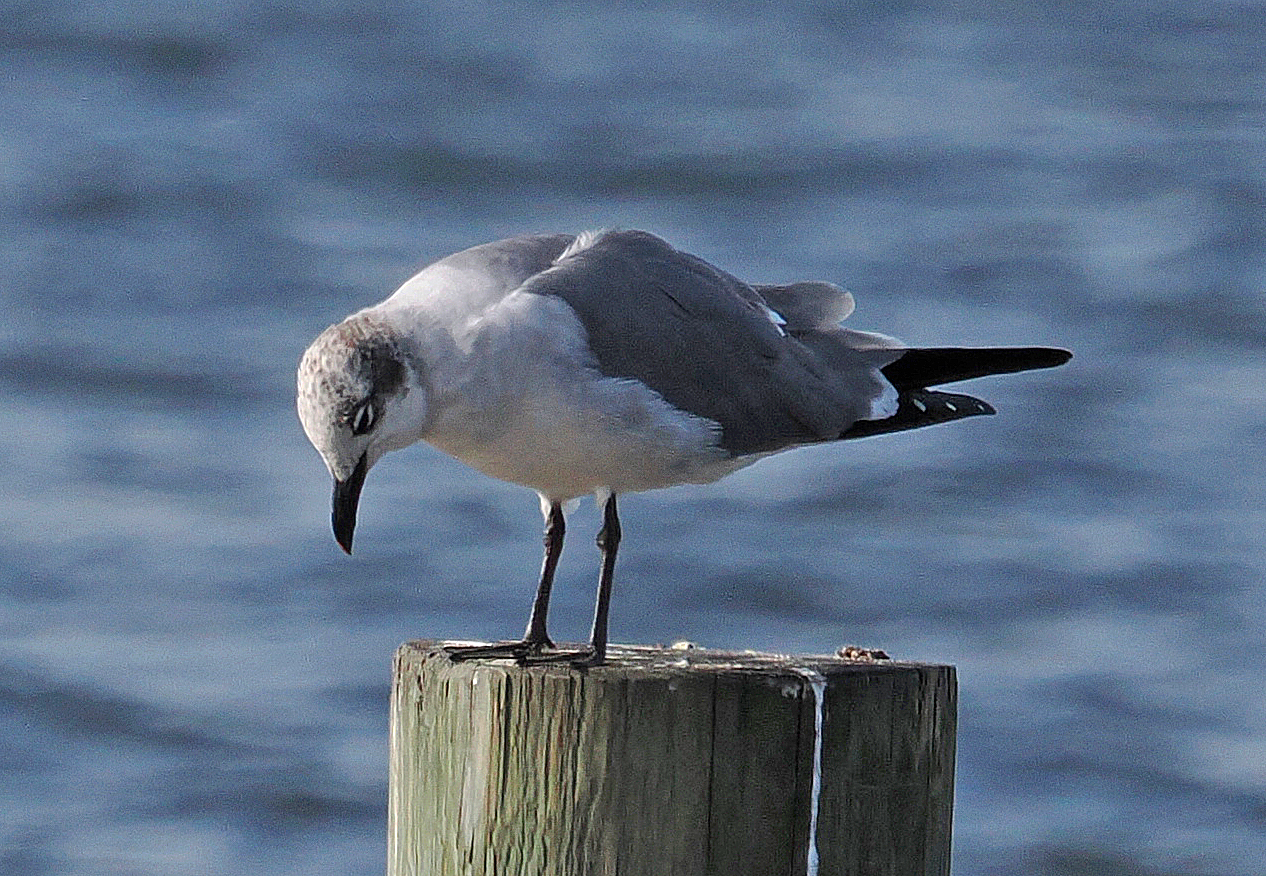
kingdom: Animalia
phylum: Chordata
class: Aves
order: Charadriiformes
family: Laridae
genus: Leucophaeus
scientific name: Leucophaeus atricilla
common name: Laughing gull
